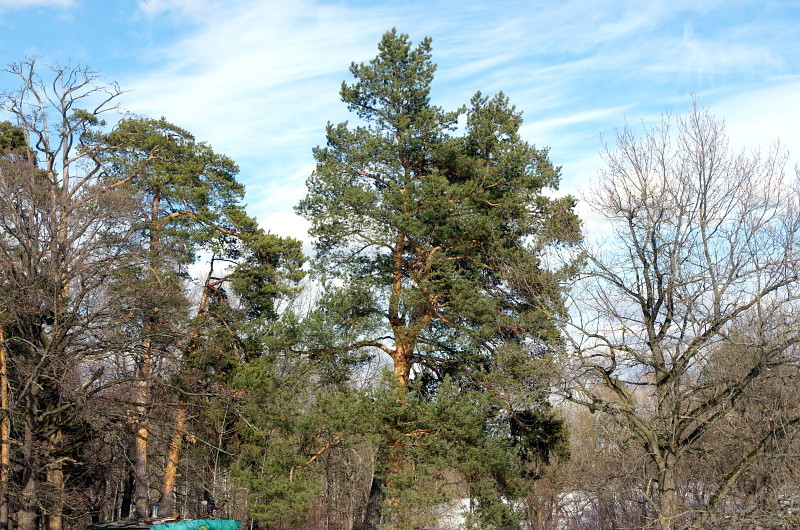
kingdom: Plantae
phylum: Tracheophyta
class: Pinopsida
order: Pinales
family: Pinaceae
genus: Pinus
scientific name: Pinus sylvestris
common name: Scots pine
